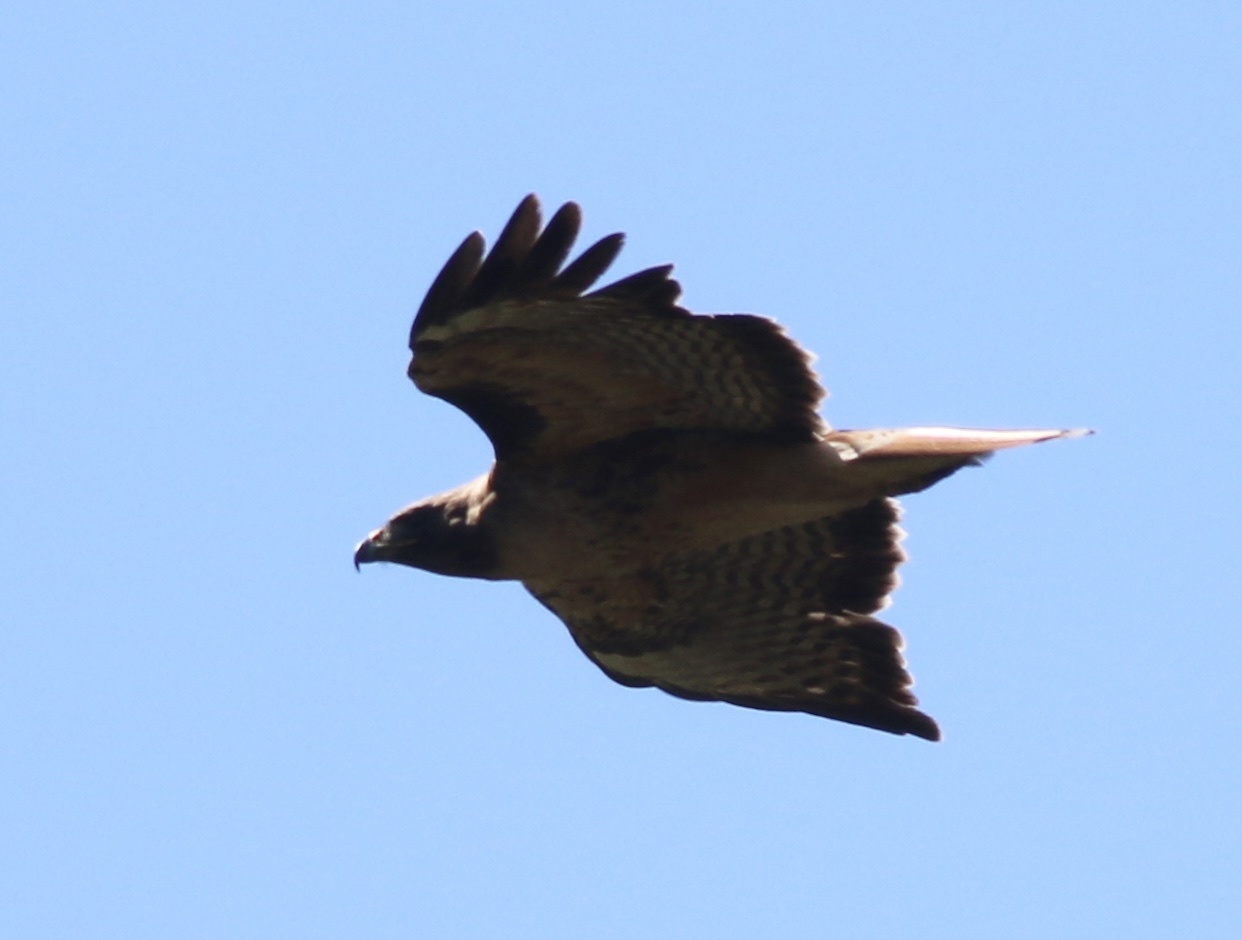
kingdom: Animalia
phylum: Chordata
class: Aves
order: Accipitriformes
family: Accipitridae
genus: Buteo
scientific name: Buteo jamaicensis
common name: Red-tailed hawk
